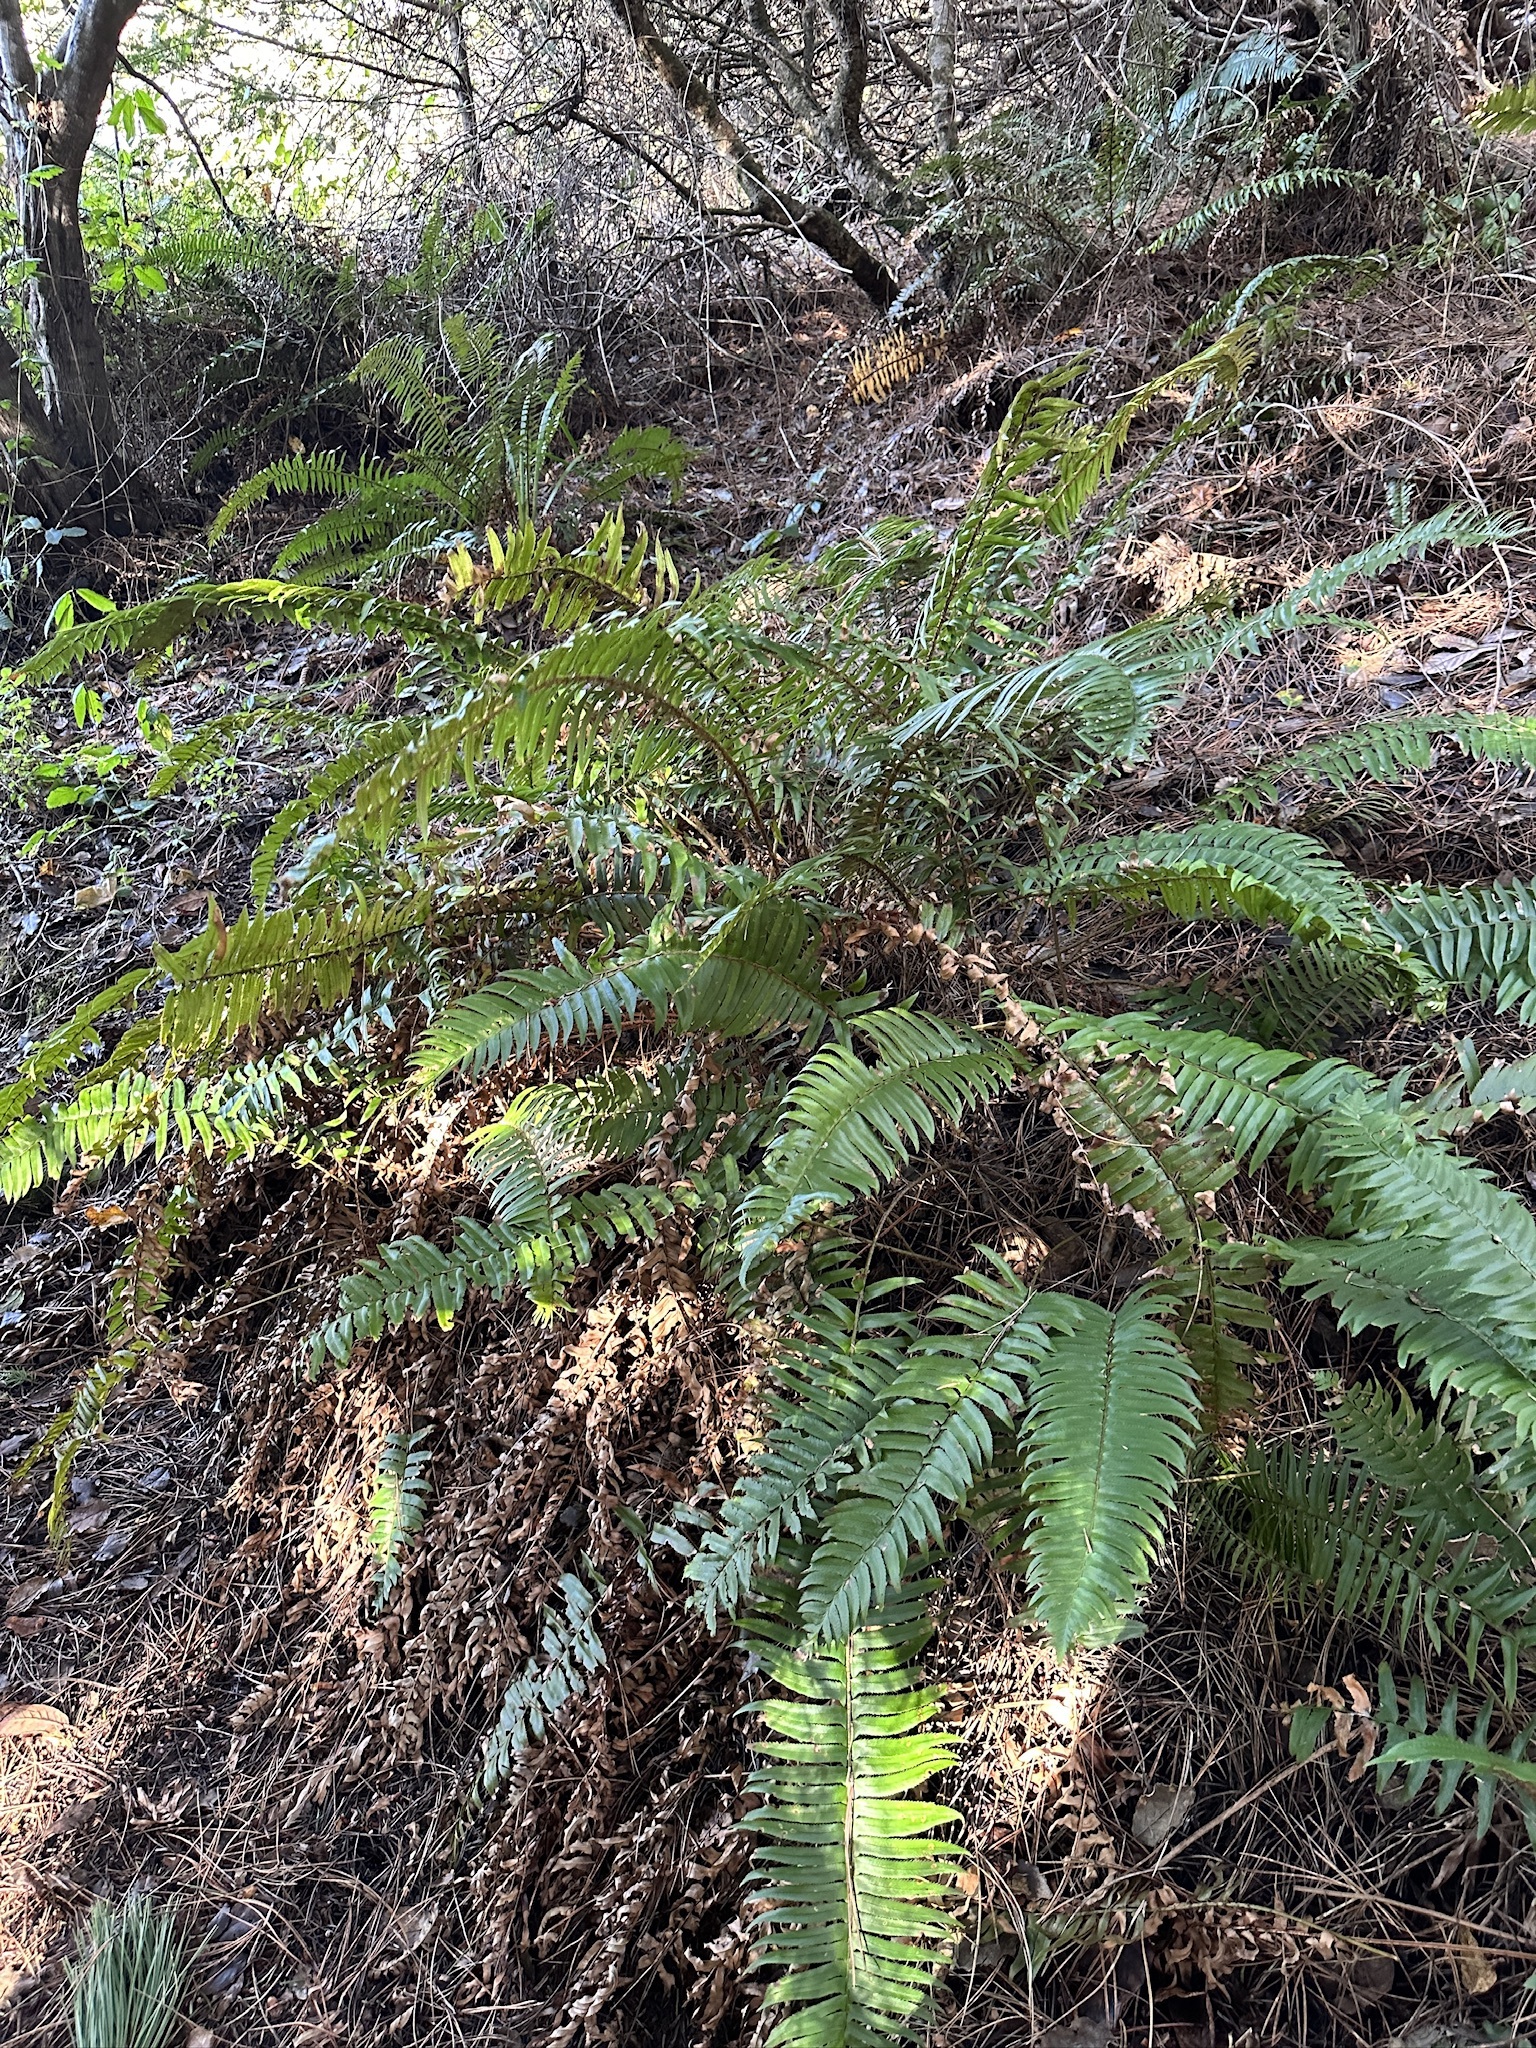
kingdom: Plantae
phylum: Tracheophyta
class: Polypodiopsida
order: Polypodiales
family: Dryopteridaceae
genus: Polystichum
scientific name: Polystichum munitum
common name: Western sword-fern
